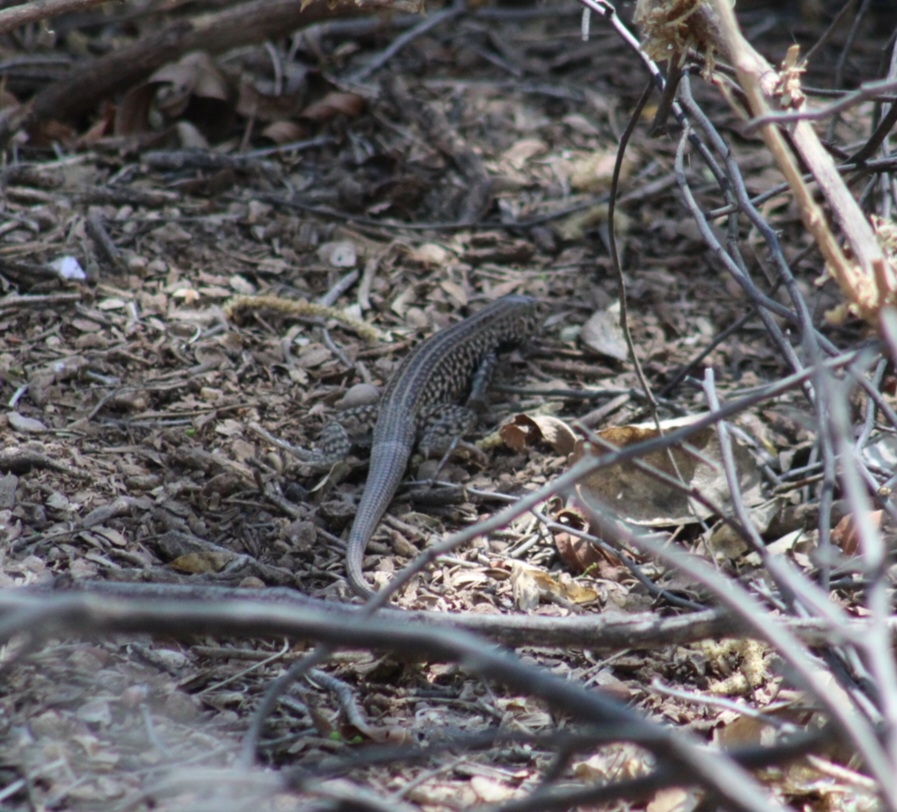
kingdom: Animalia
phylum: Chordata
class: Squamata
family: Teiidae
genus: Aspidoscelis
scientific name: Aspidoscelis tigris
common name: Tiger whiptail
